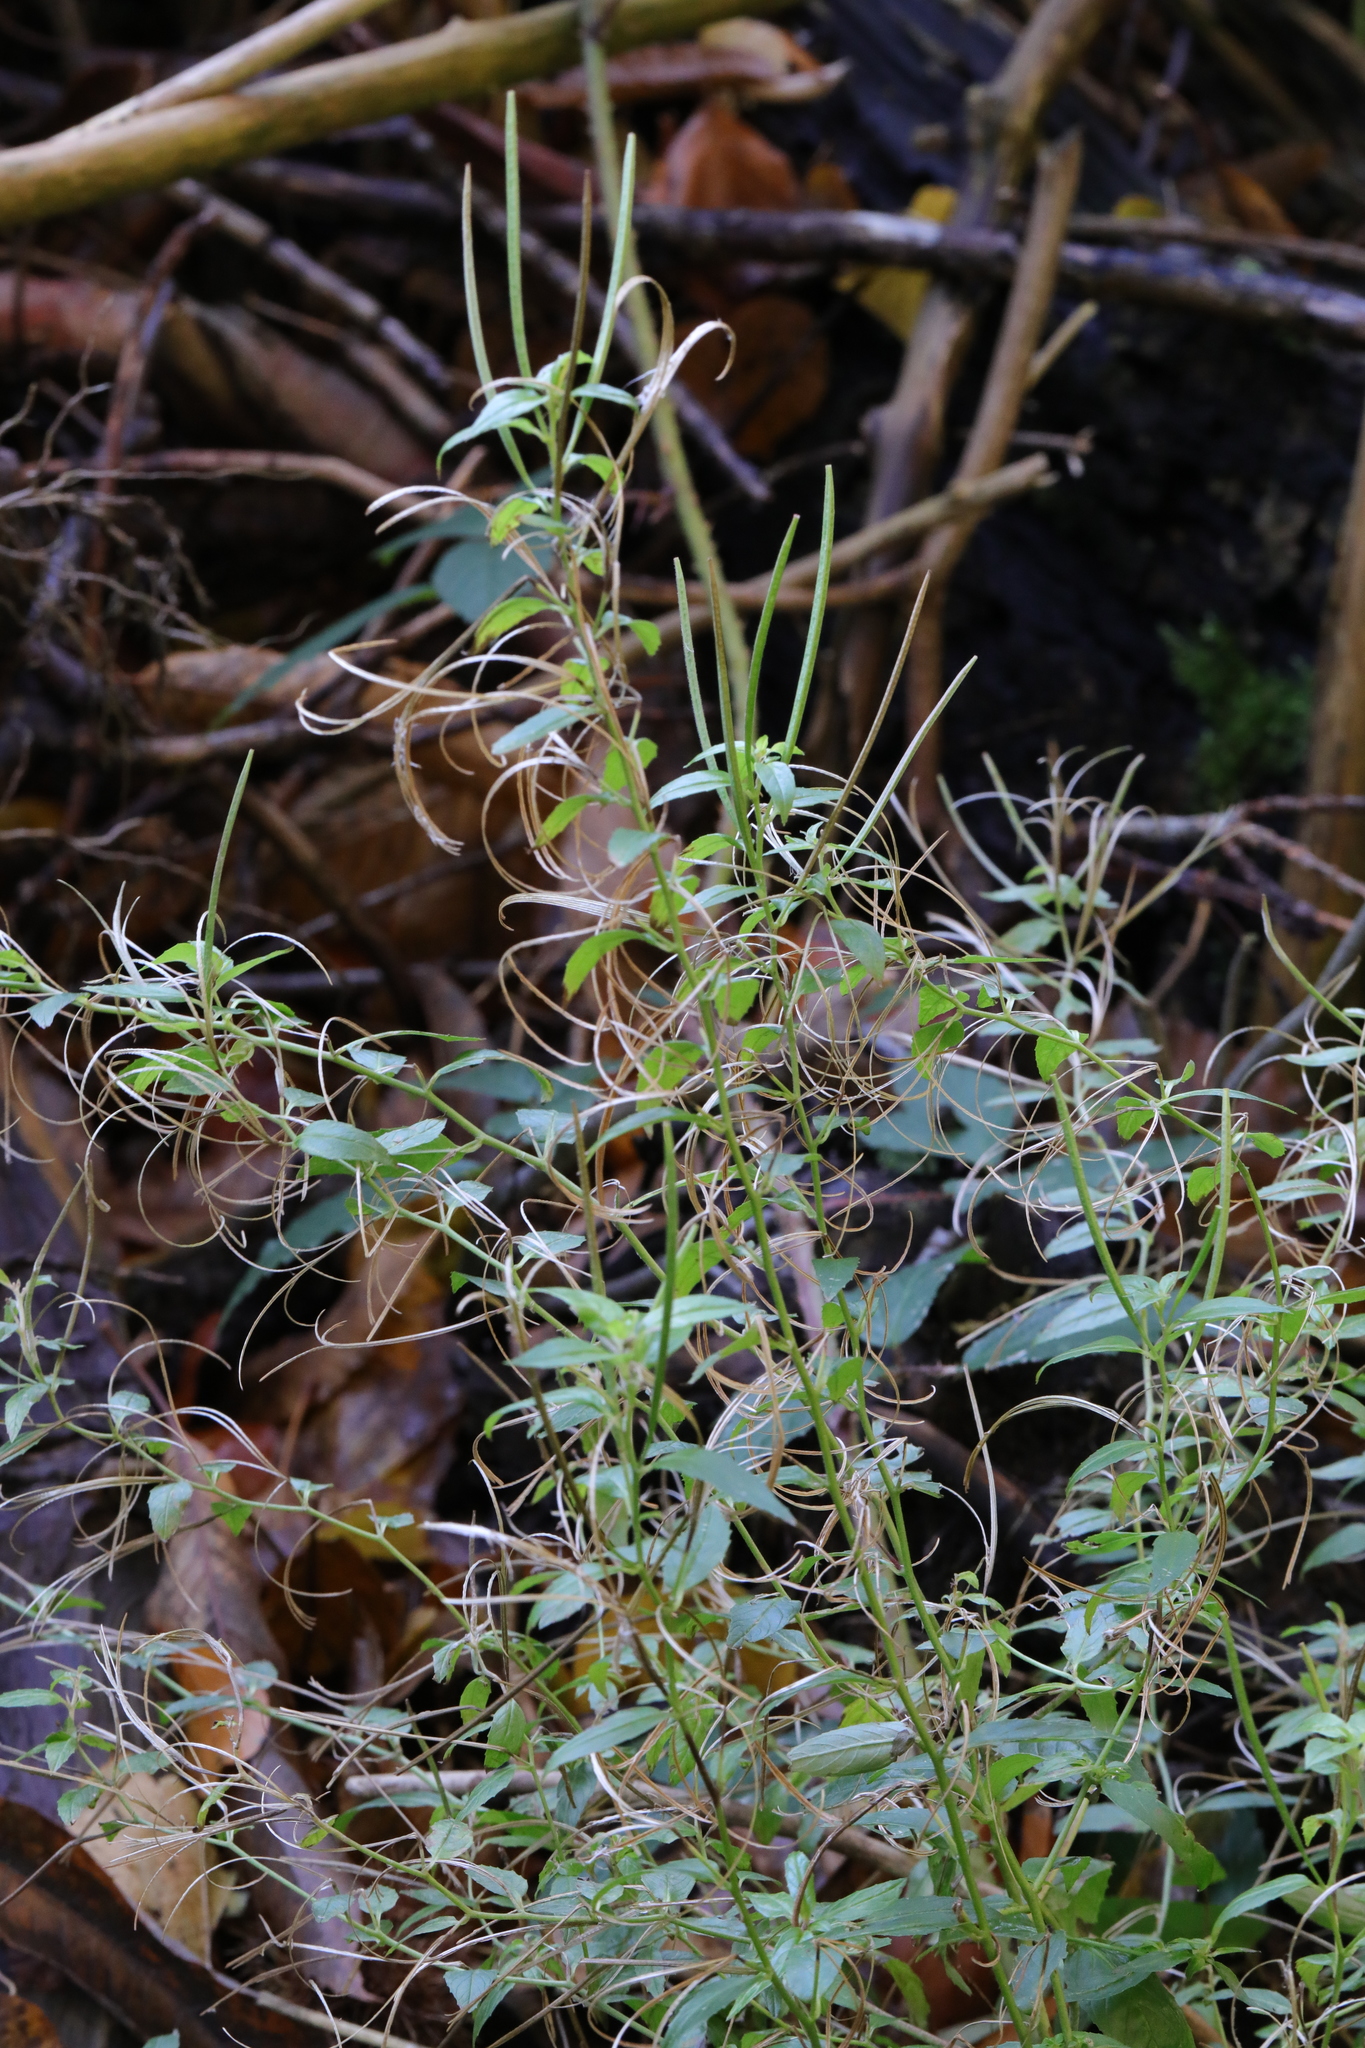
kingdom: Plantae
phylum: Tracheophyta
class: Magnoliopsida
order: Myrtales
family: Onagraceae
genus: Epilobium
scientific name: Epilobium montanum
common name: Broad-leaved willowherb
